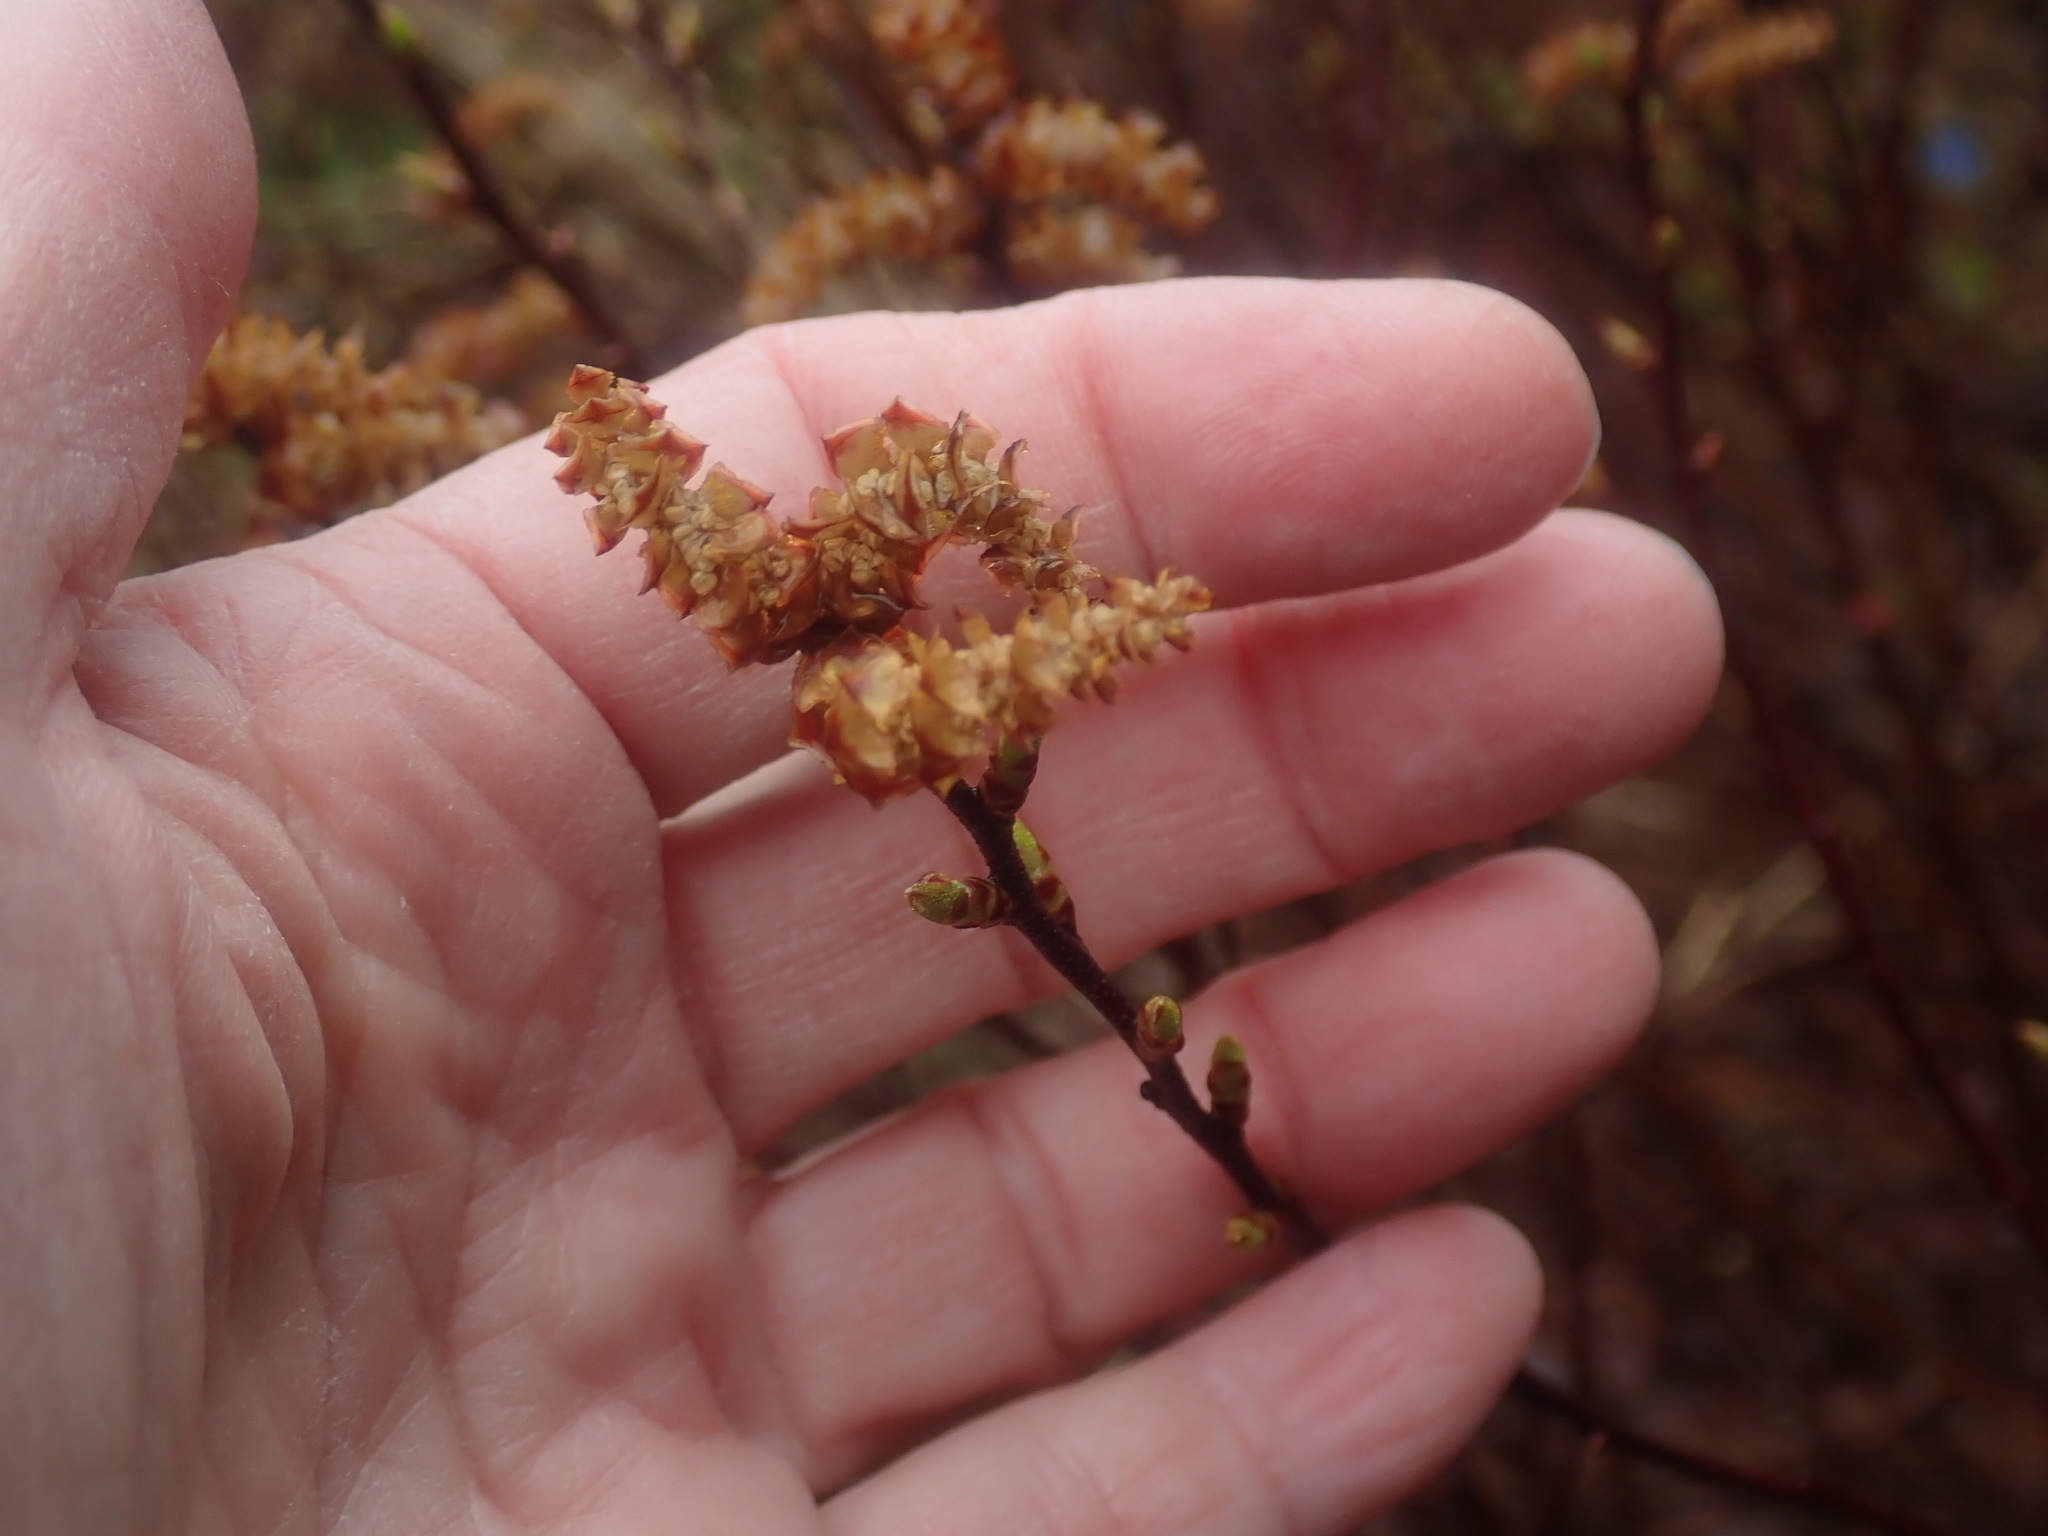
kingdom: Plantae
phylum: Tracheophyta
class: Magnoliopsida
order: Fagales
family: Myricaceae
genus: Myrica
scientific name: Myrica gale
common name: Sweet gale
